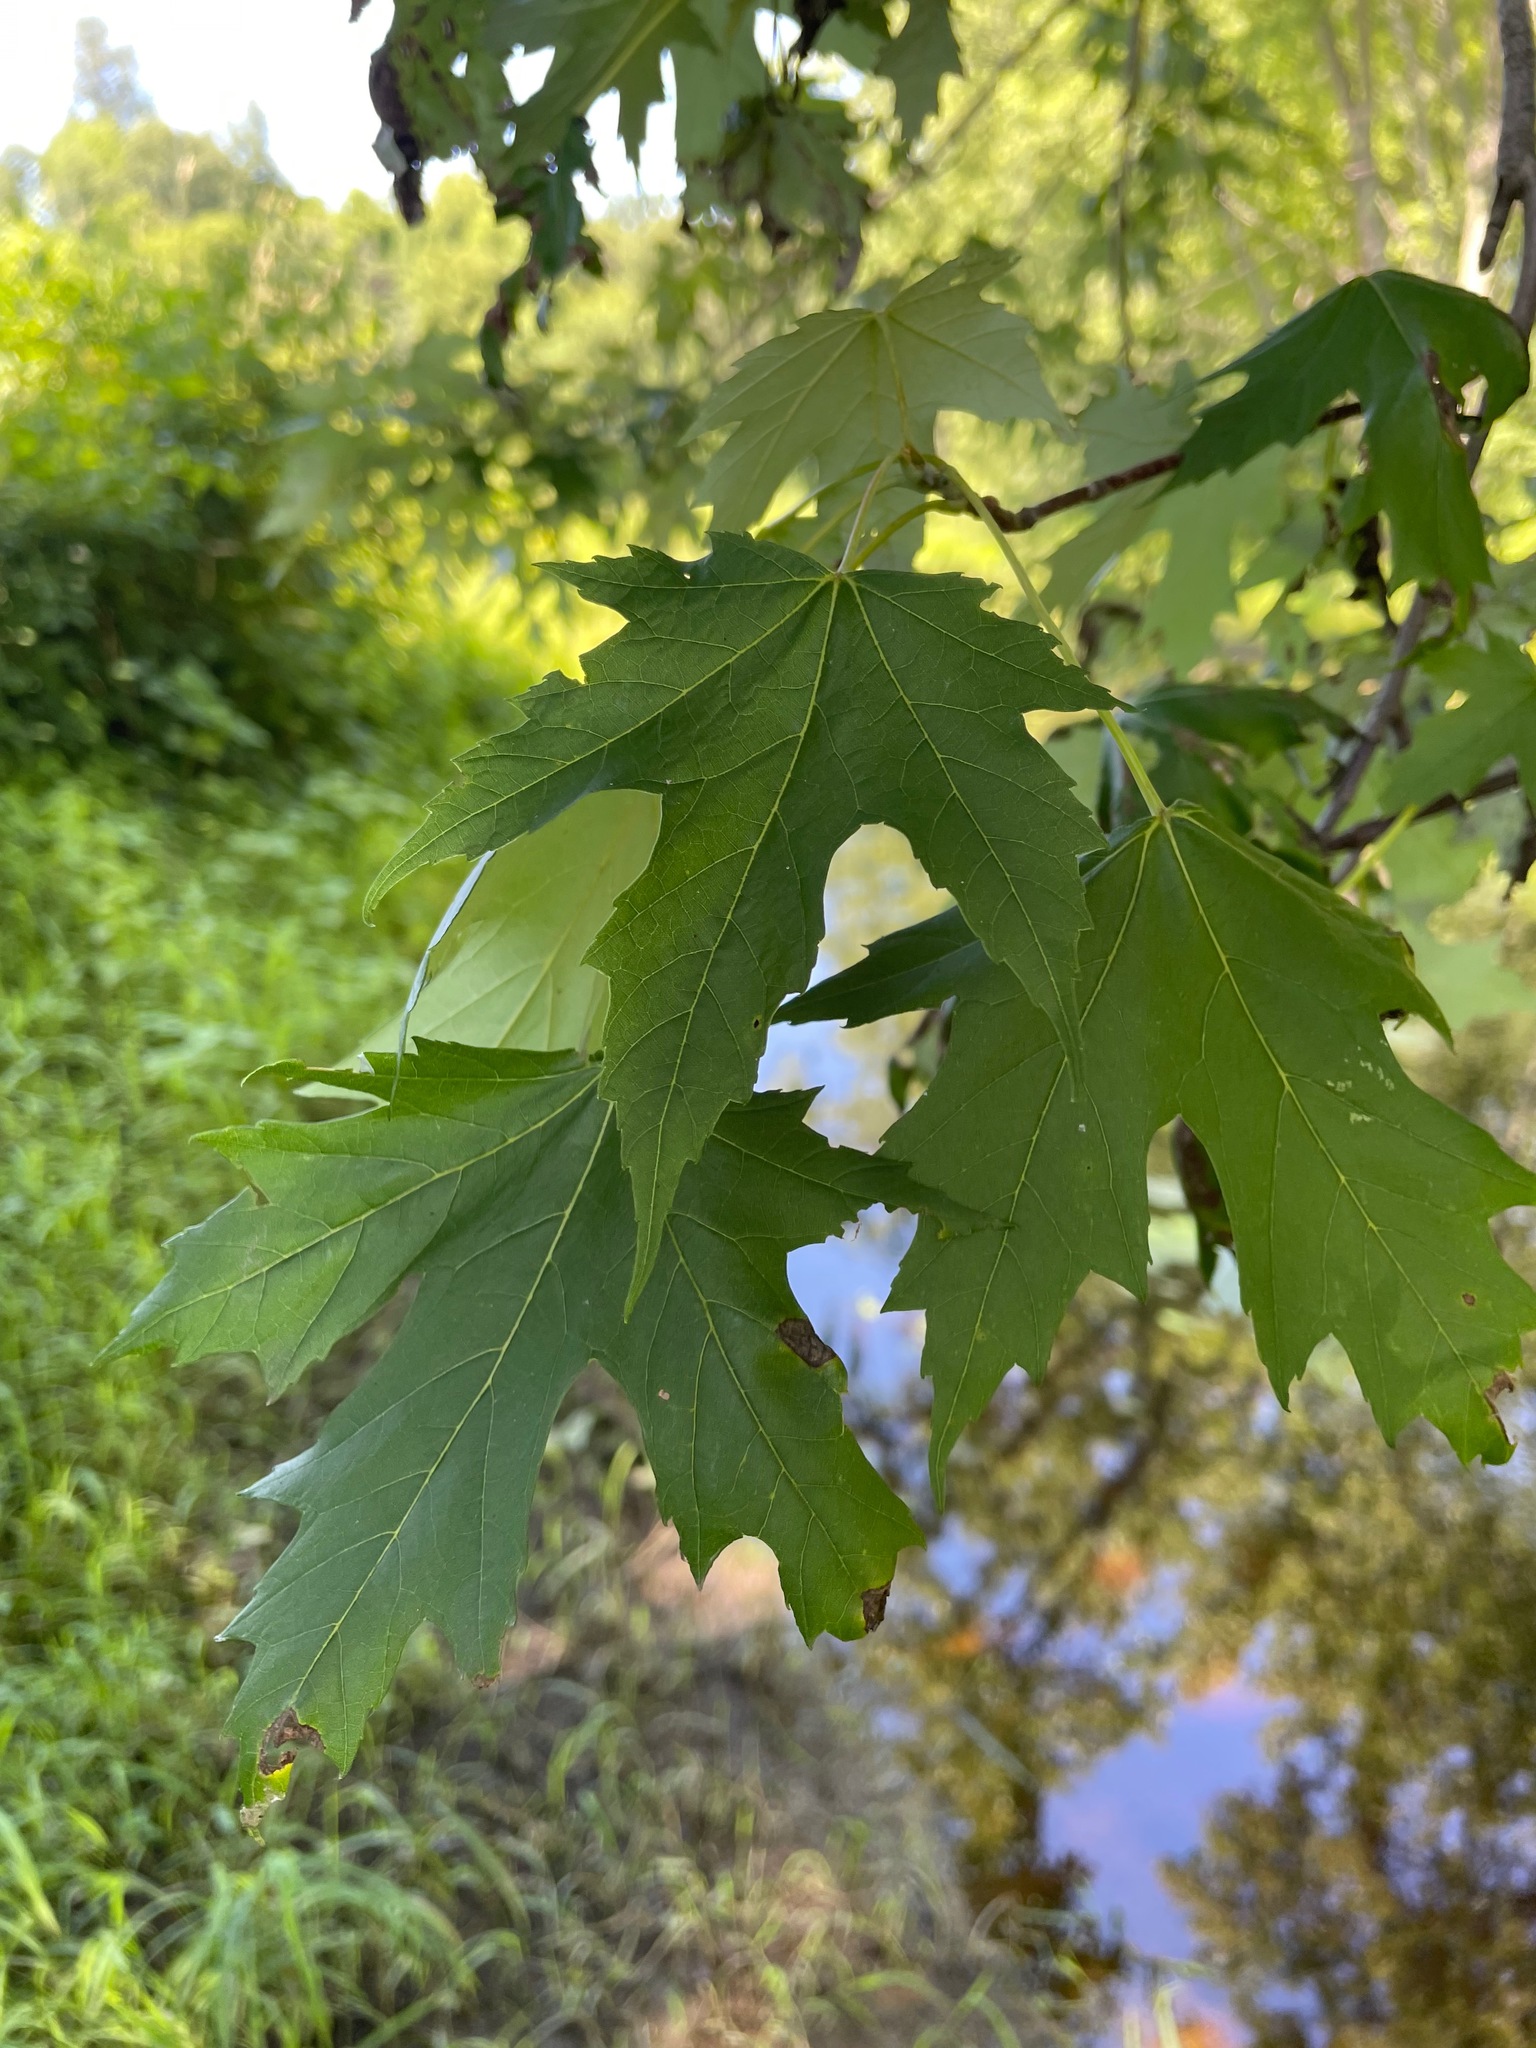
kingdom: Plantae
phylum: Tracheophyta
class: Magnoliopsida
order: Sapindales
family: Sapindaceae
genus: Acer
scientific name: Acer saccharinum
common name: Silver maple
